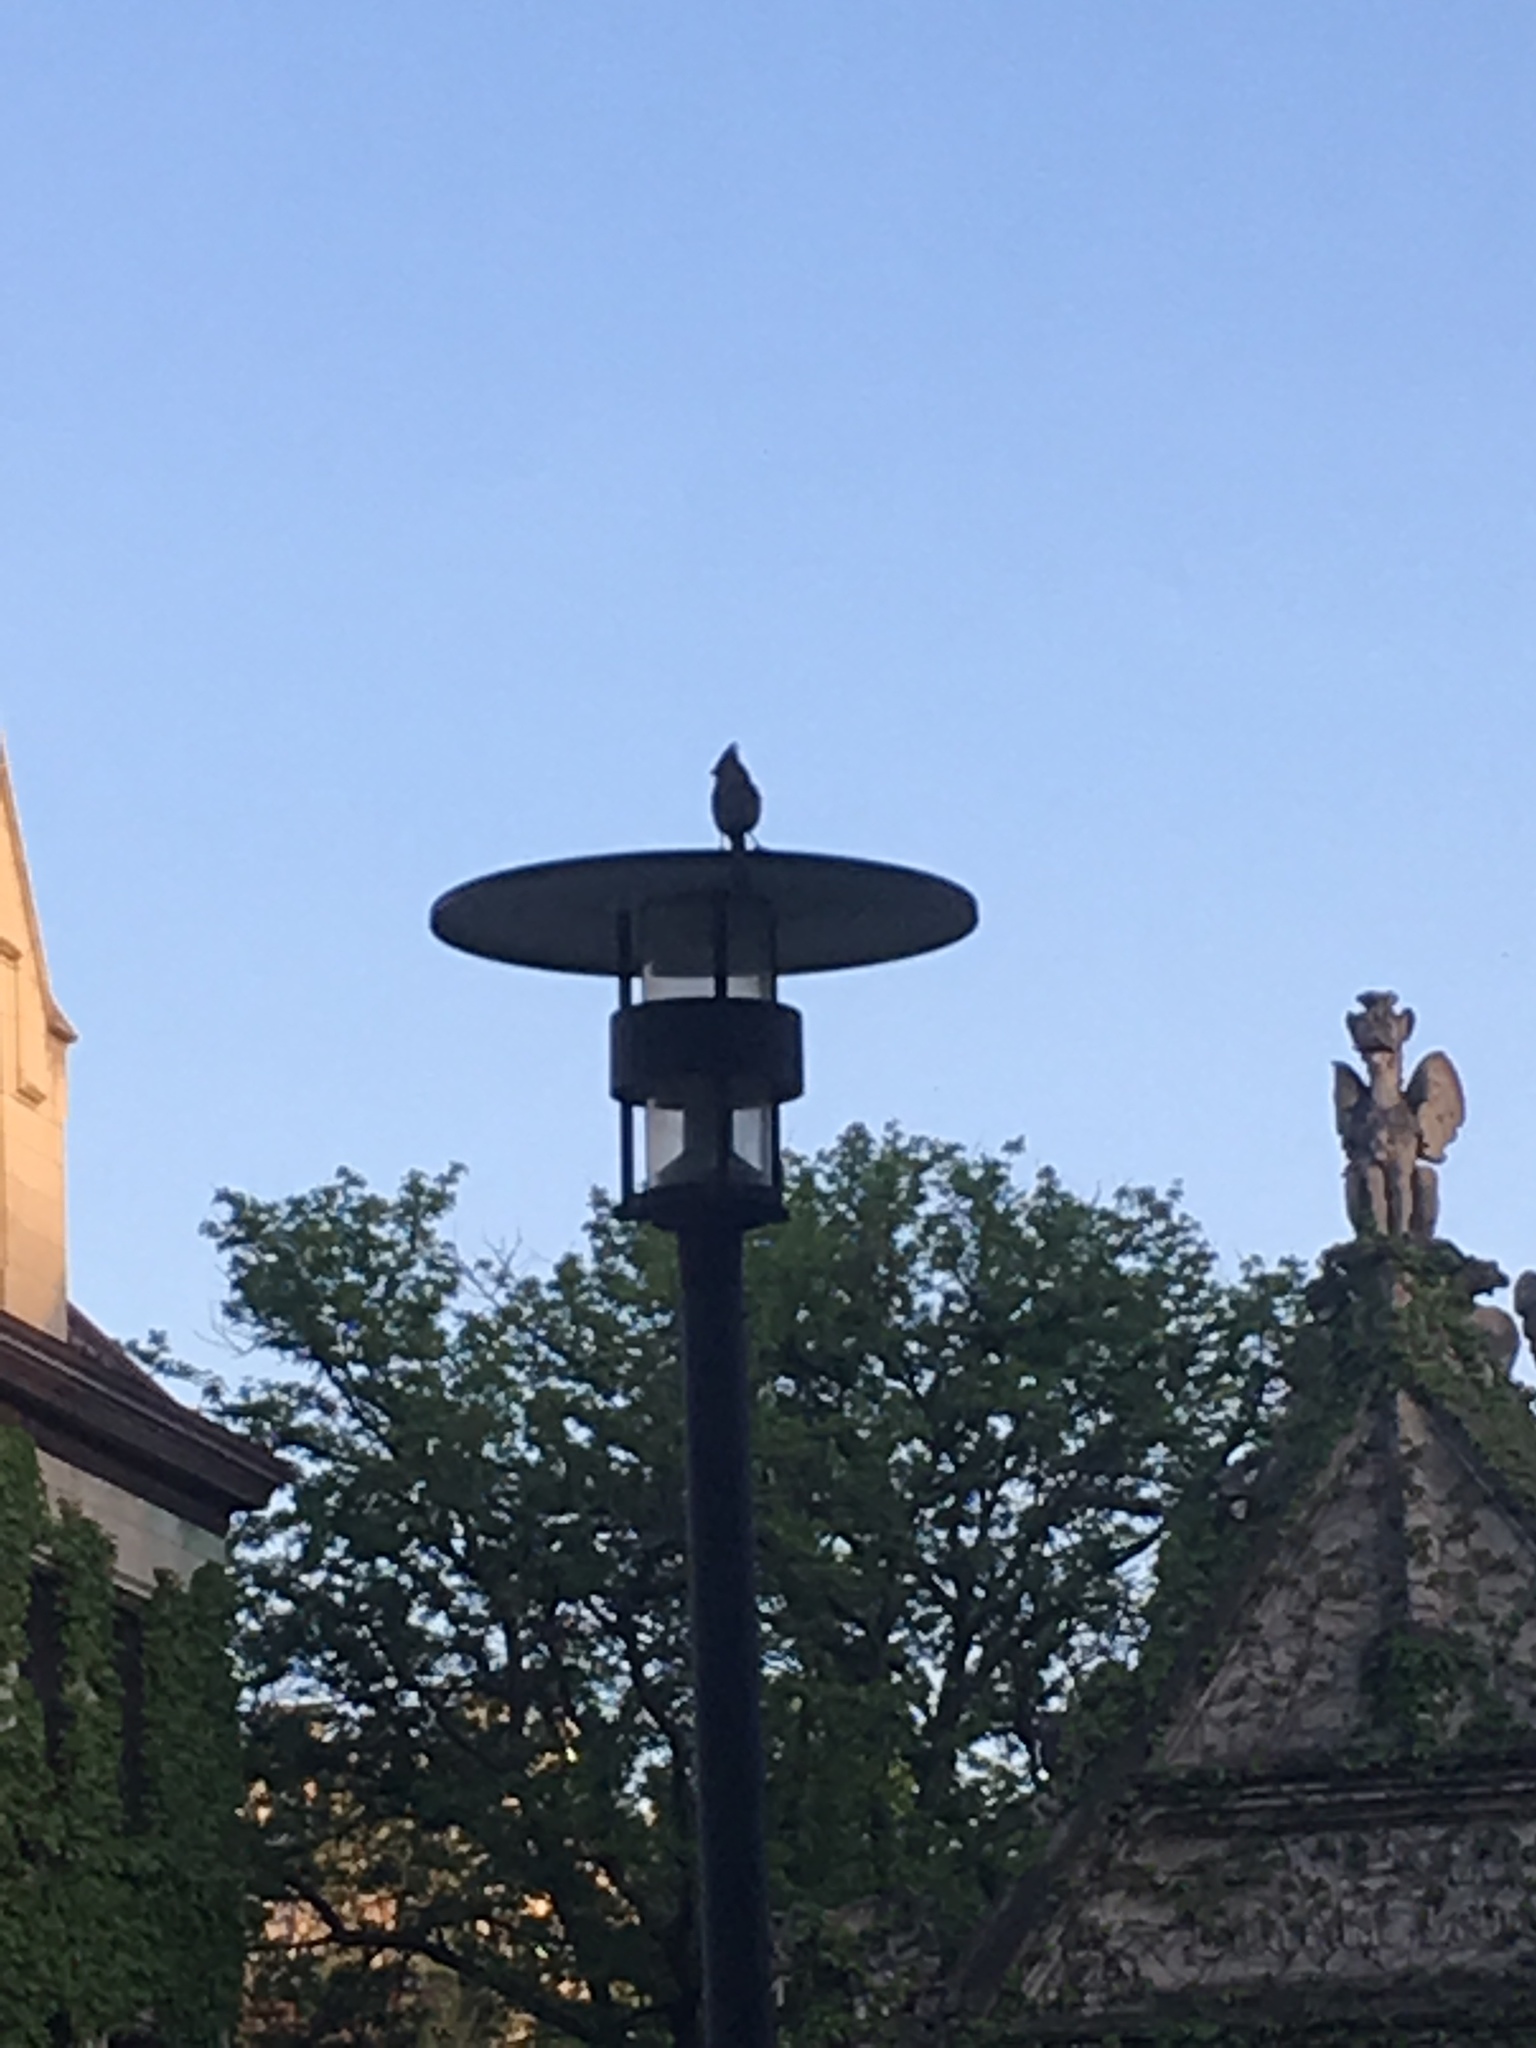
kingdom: Animalia
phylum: Chordata
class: Aves
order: Passeriformes
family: Cardinalidae
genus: Cardinalis
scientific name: Cardinalis cardinalis
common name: Northern cardinal
